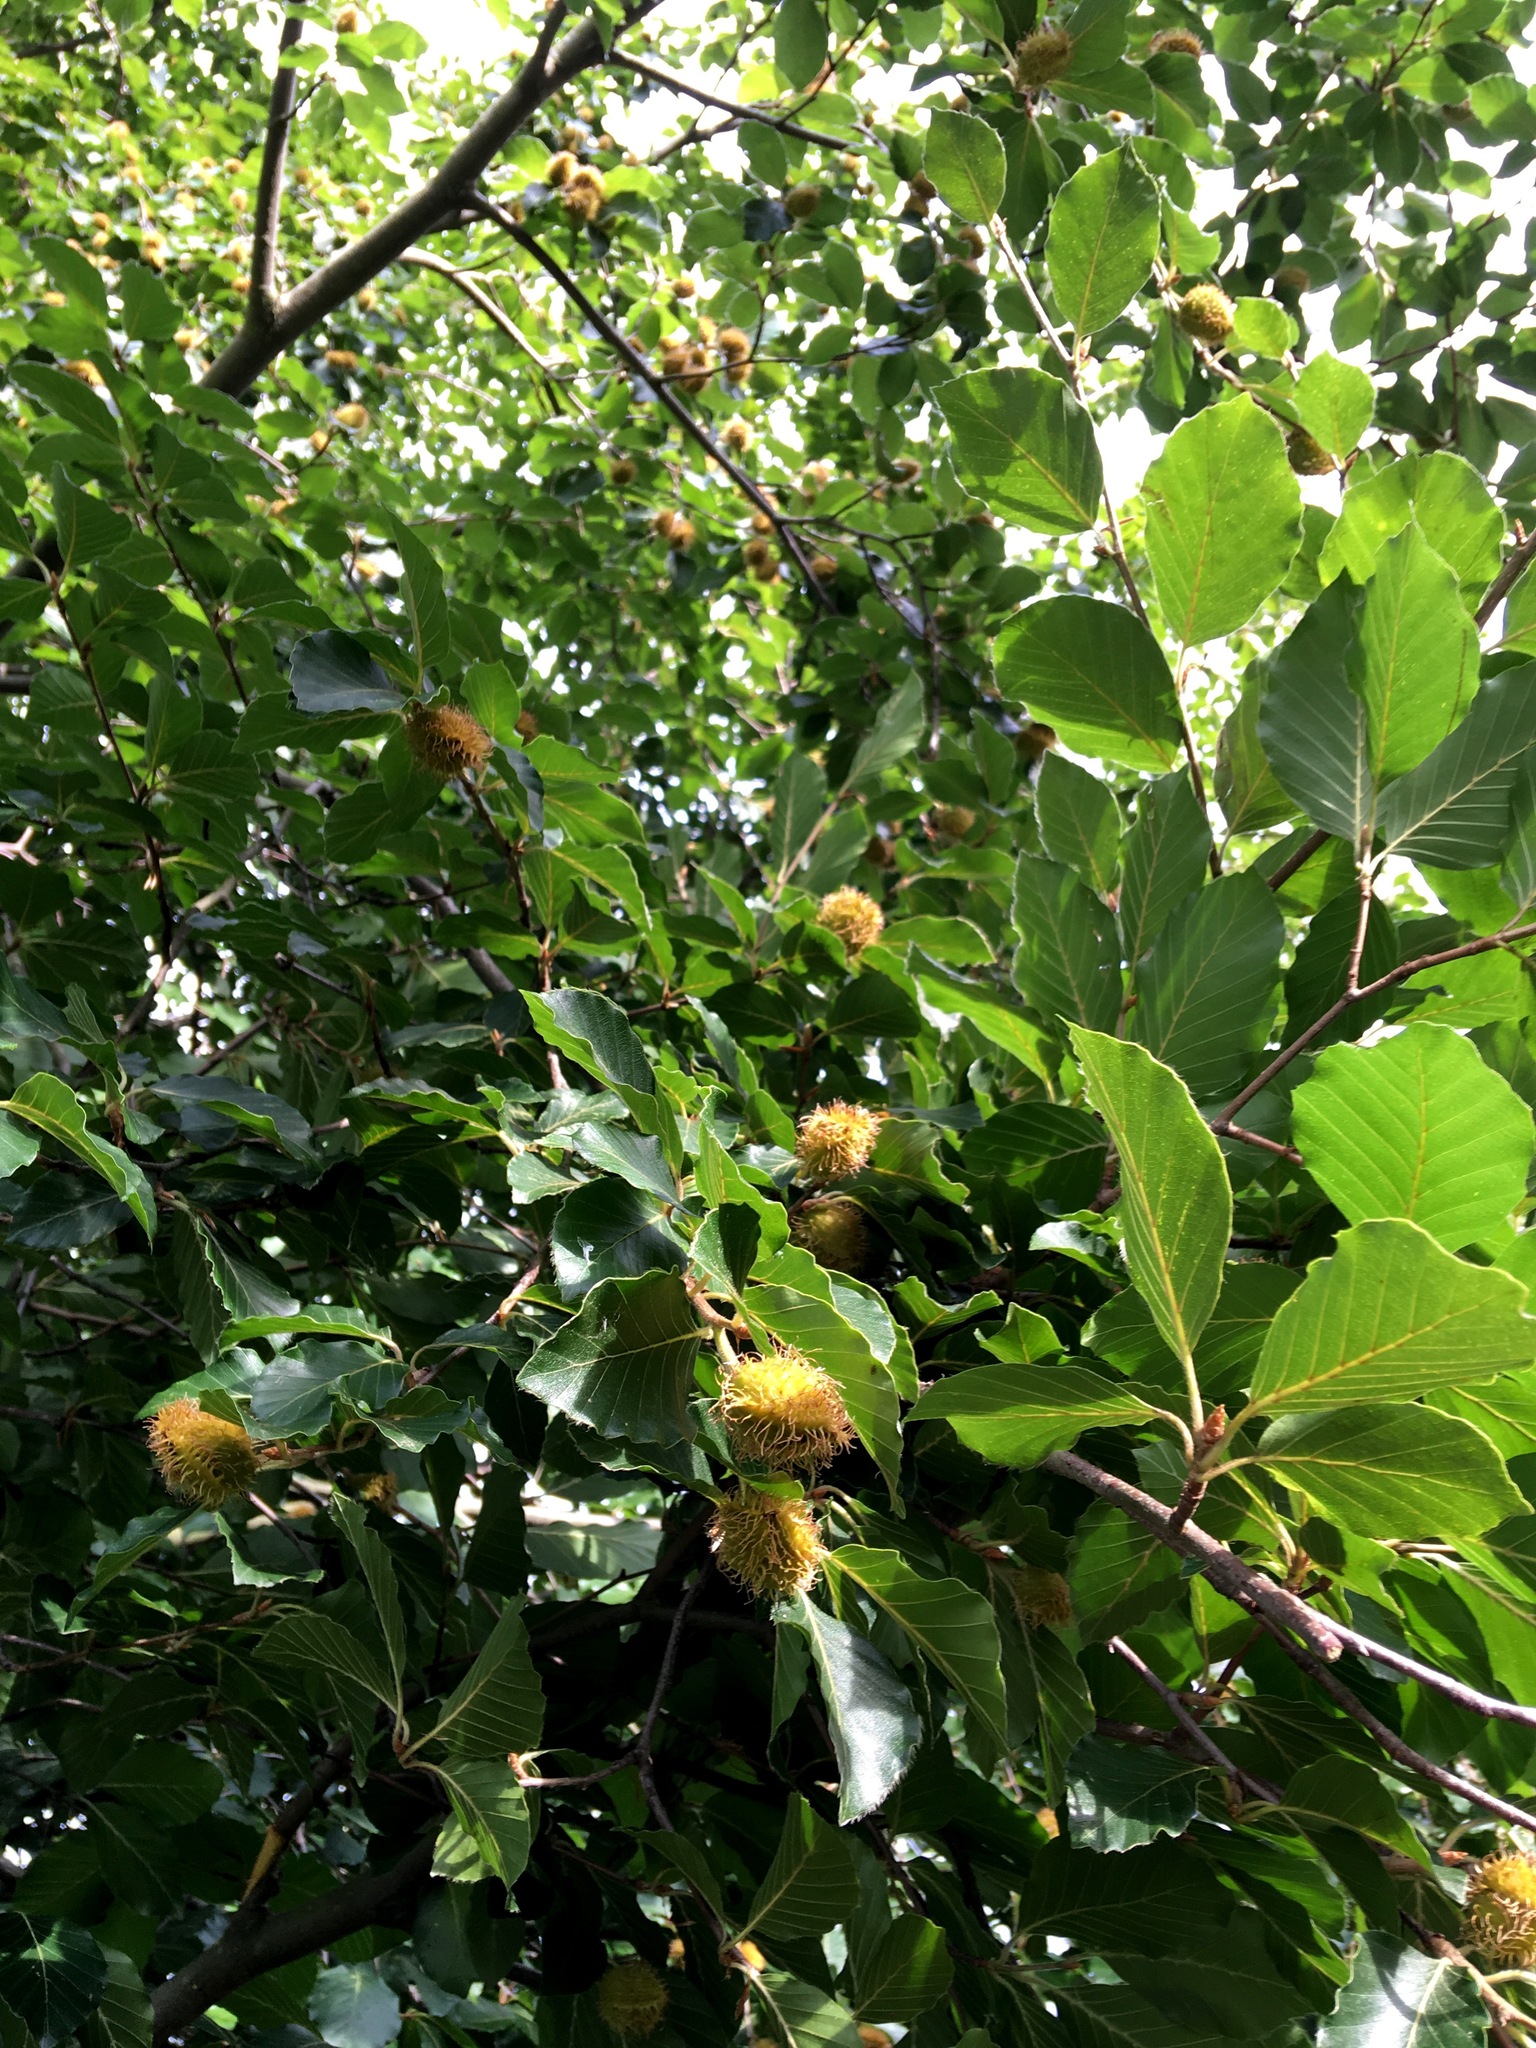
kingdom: Plantae
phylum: Tracheophyta
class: Magnoliopsida
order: Fagales
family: Fagaceae
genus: Fagus
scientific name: Fagus sylvatica
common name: Beech
